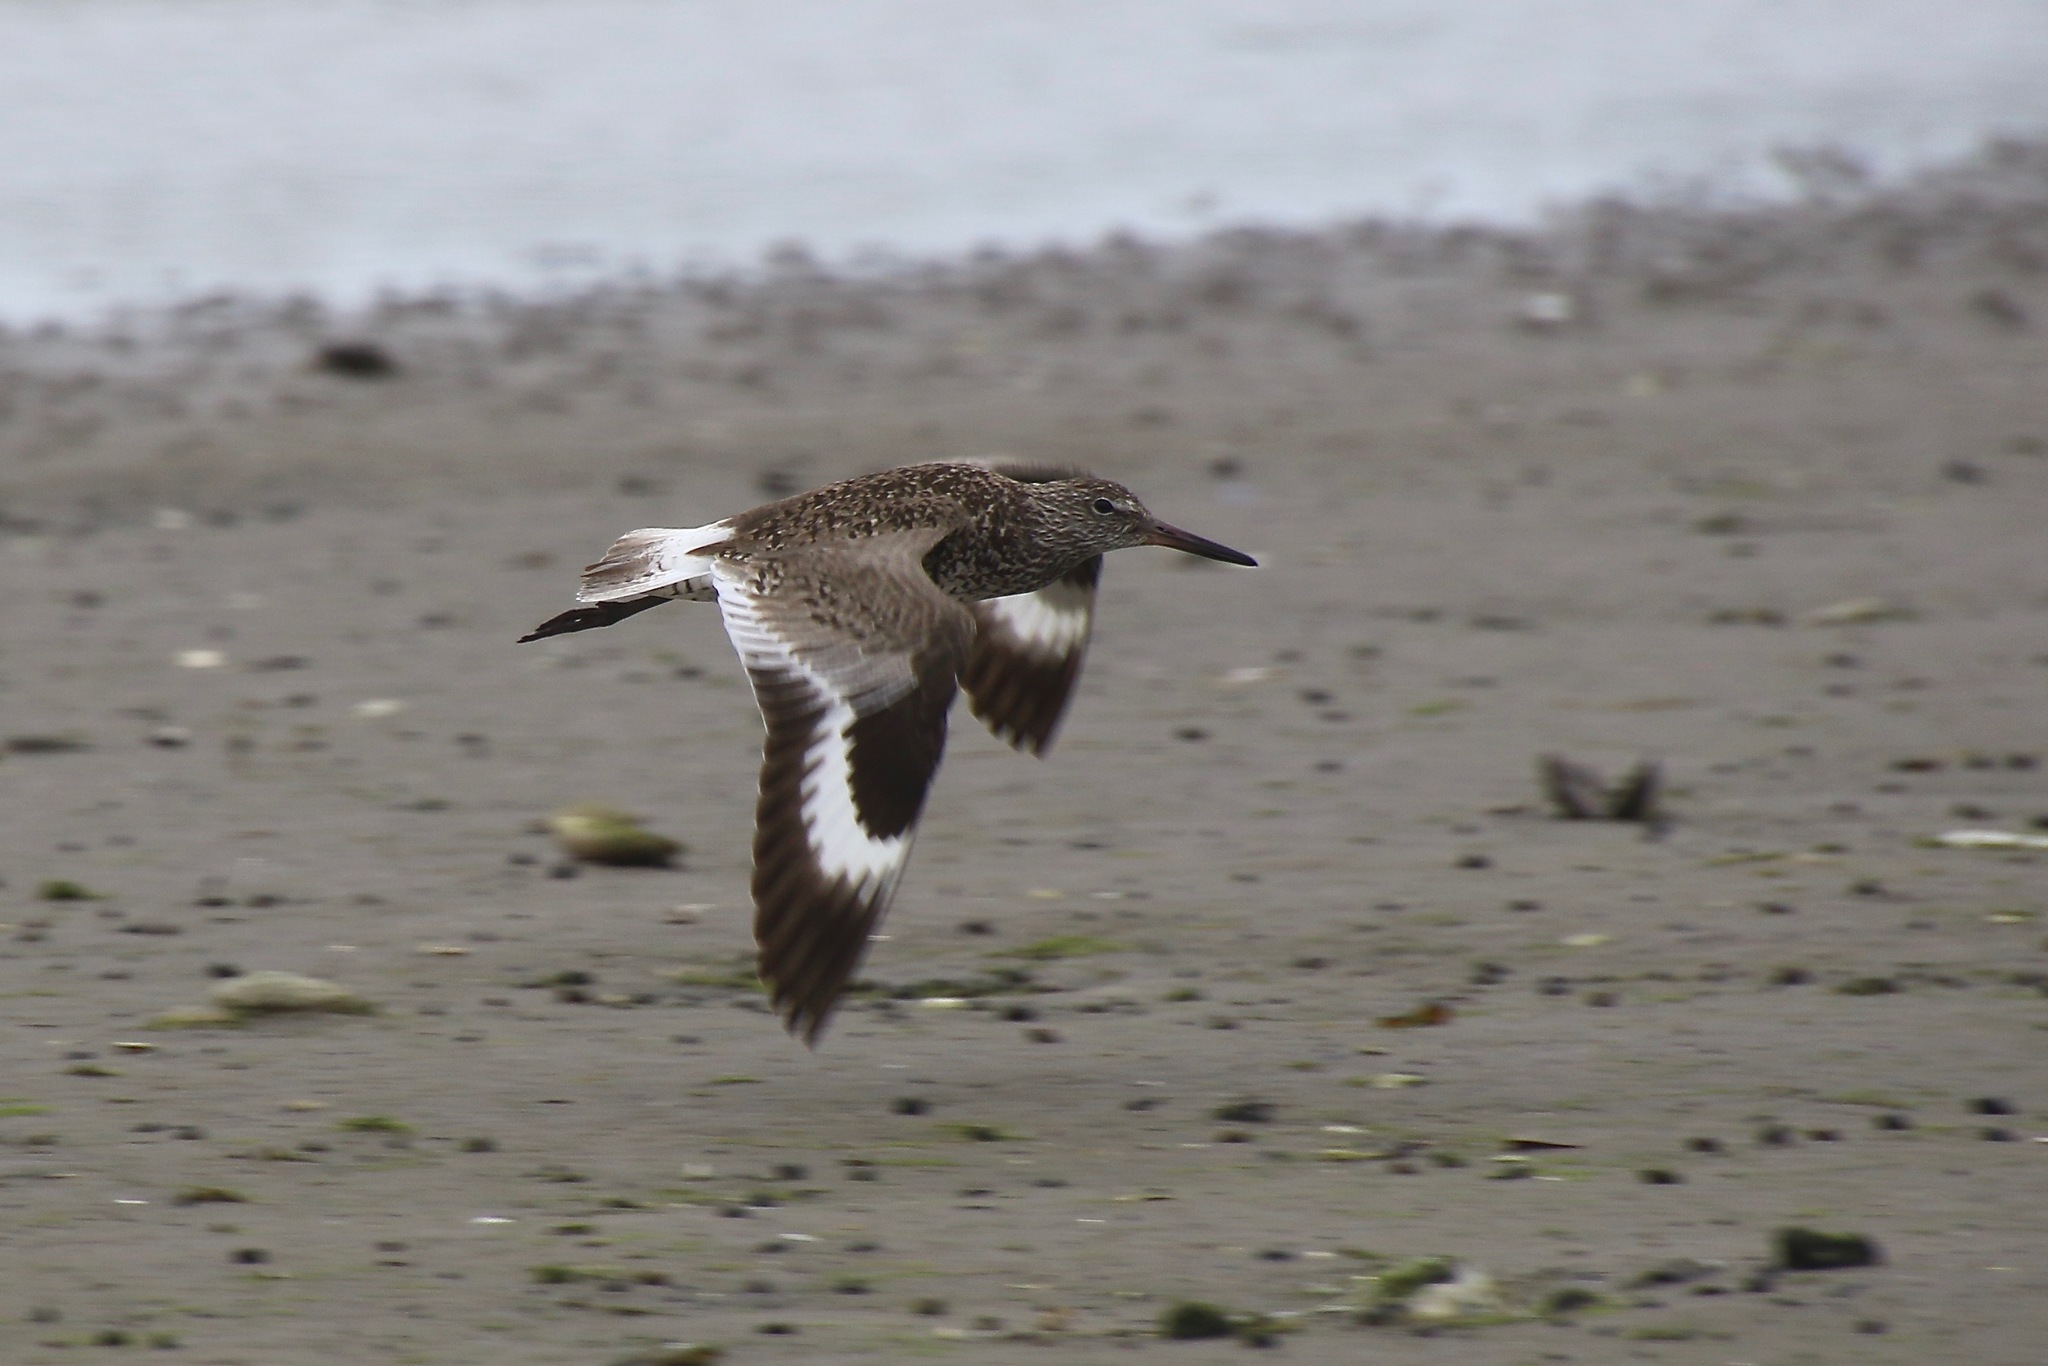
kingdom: Animalia
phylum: Chordata
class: Aves
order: Charadriiformes
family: Scolopacidae
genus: Tringa
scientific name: Tringa semipalmata
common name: Willet
